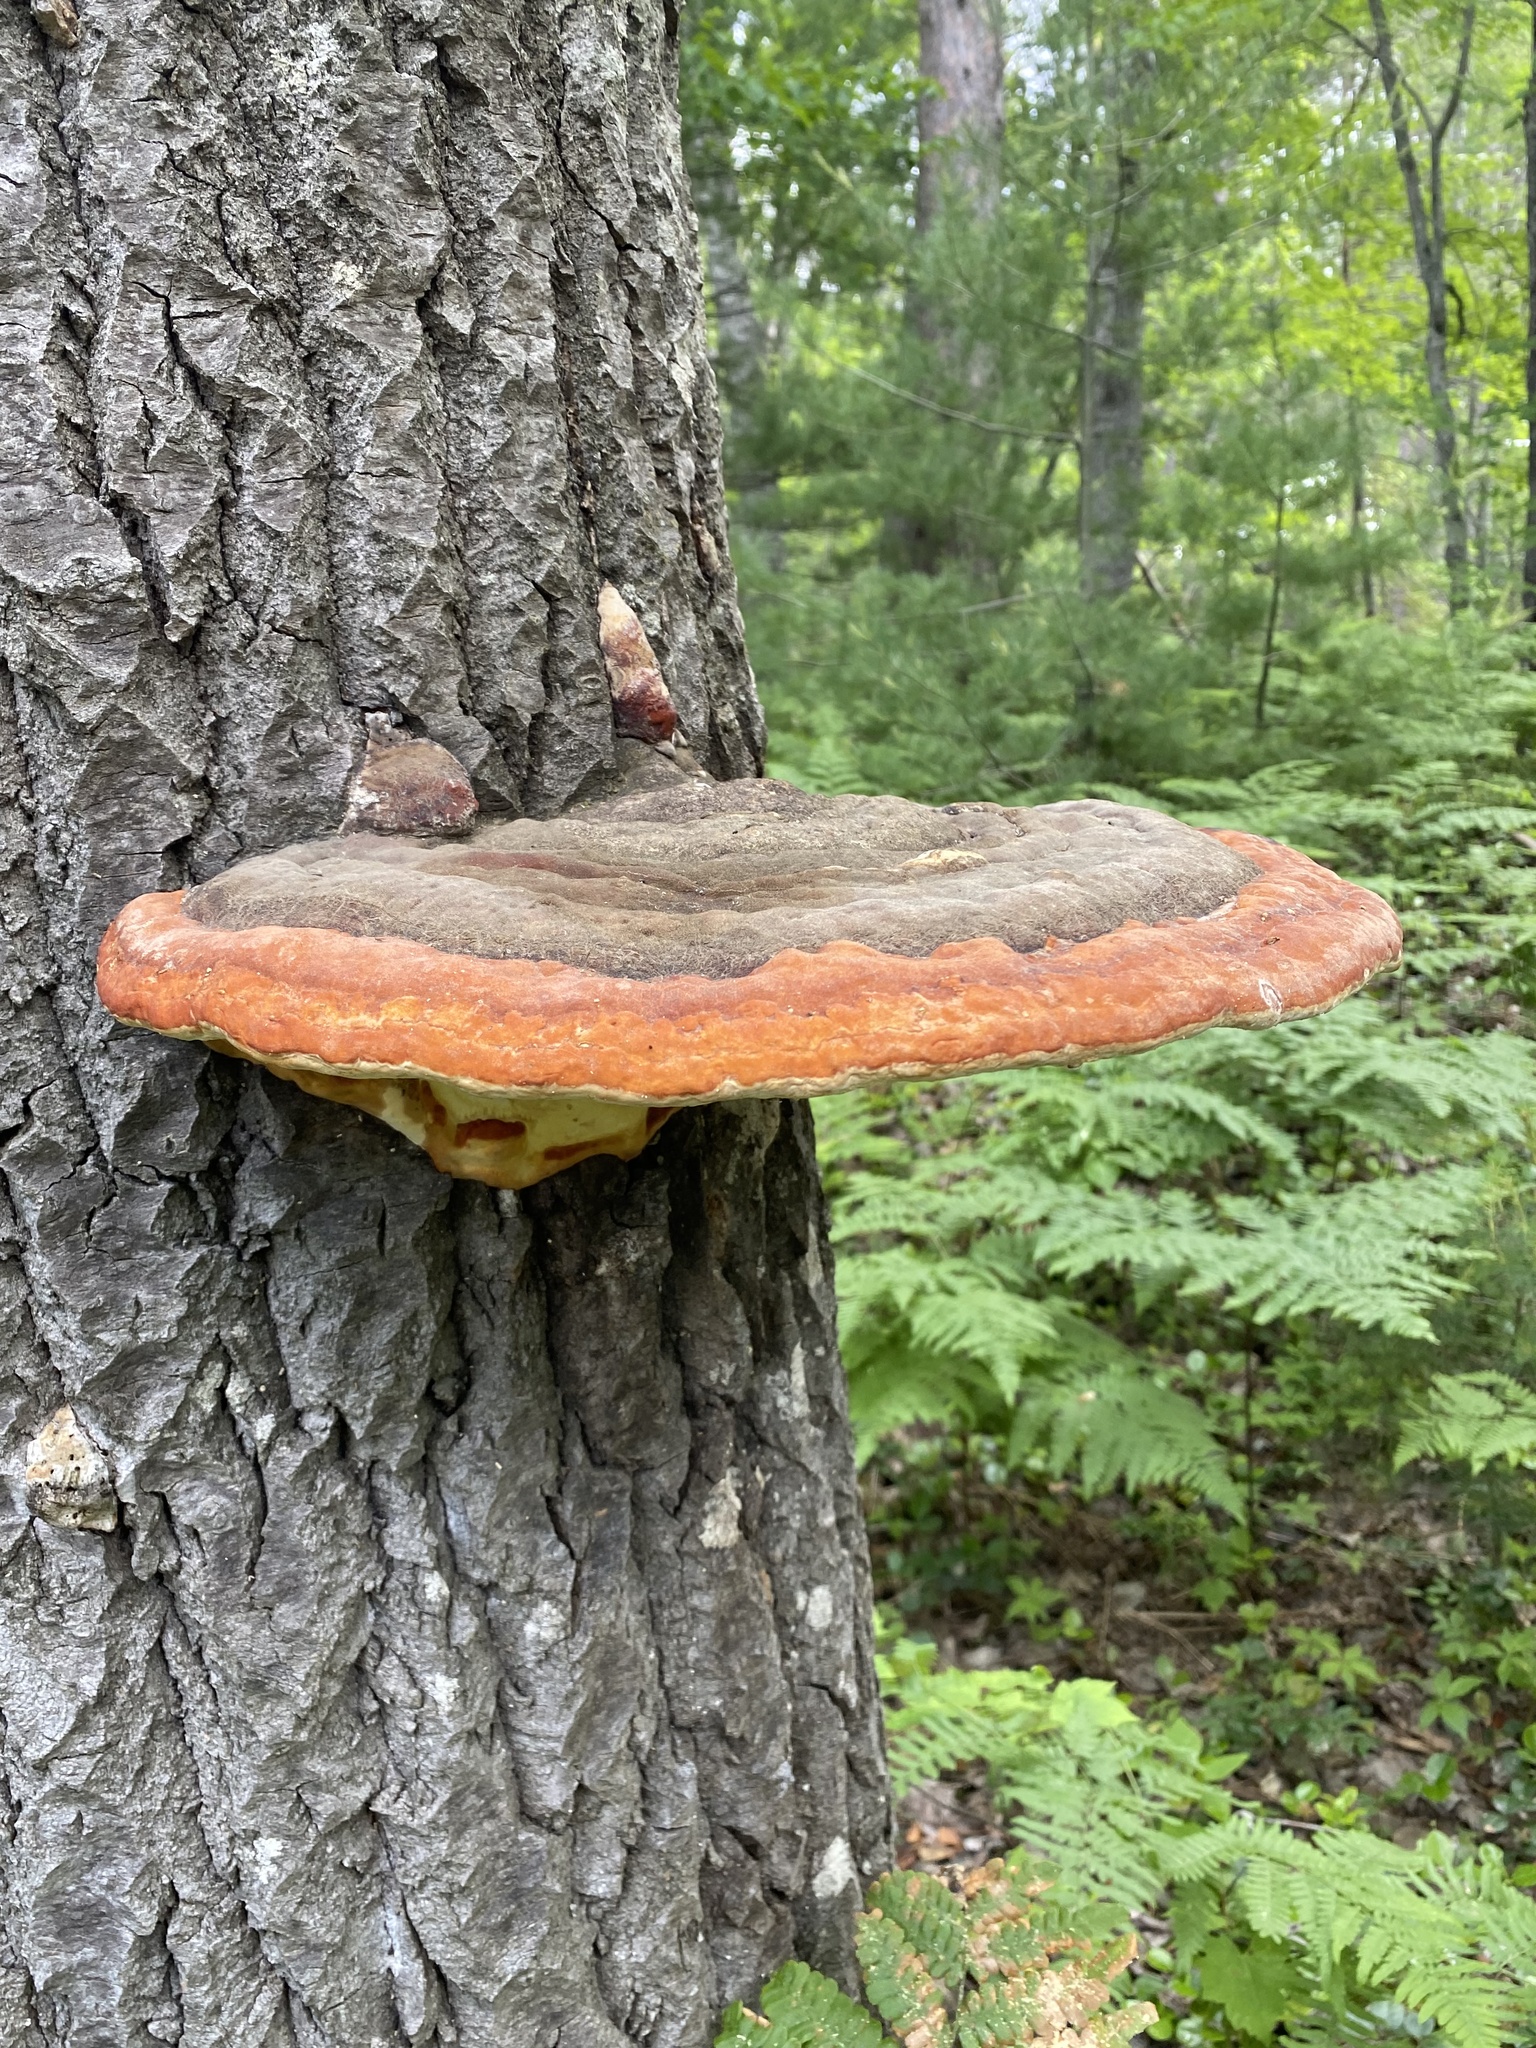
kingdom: Fungi
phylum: Basidiomycota
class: Agaricomycetes
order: Polyporales
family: Fomitopsidaceae
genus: Fomitopsis
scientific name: Fomitopsis mounceae
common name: Northern red belt
